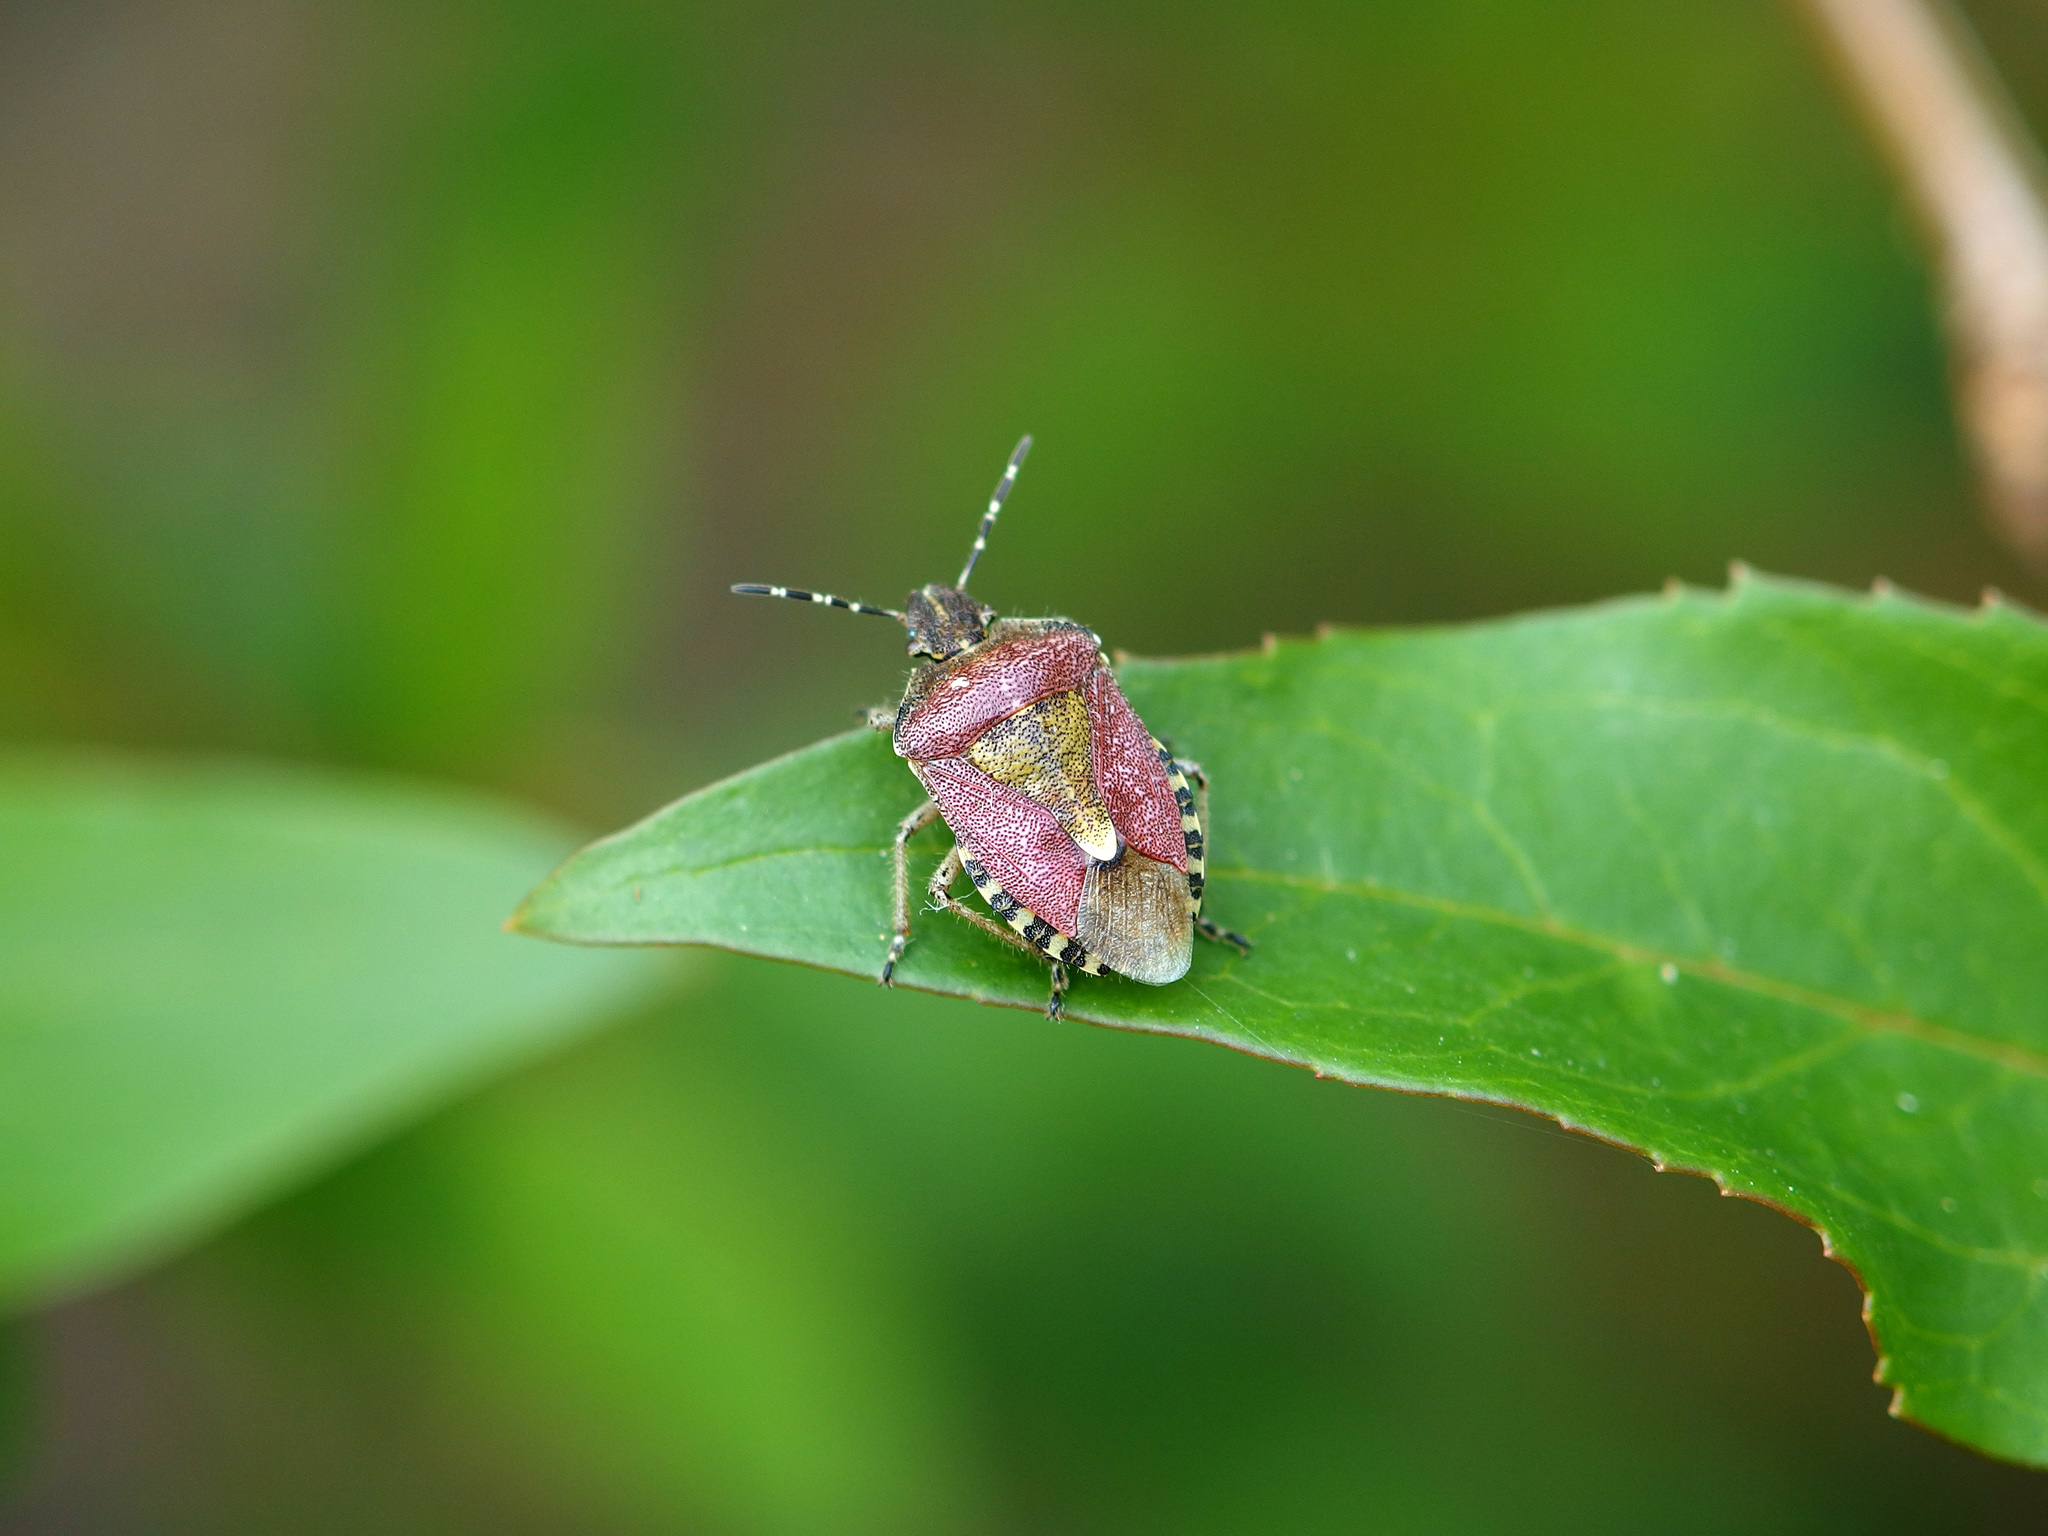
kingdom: Animalia
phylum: Arthropoda
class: Insecta
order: Hemiptera
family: Pentatomidae
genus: Dolycoris
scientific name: Dolycoris baccarum
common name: Sloe bug
